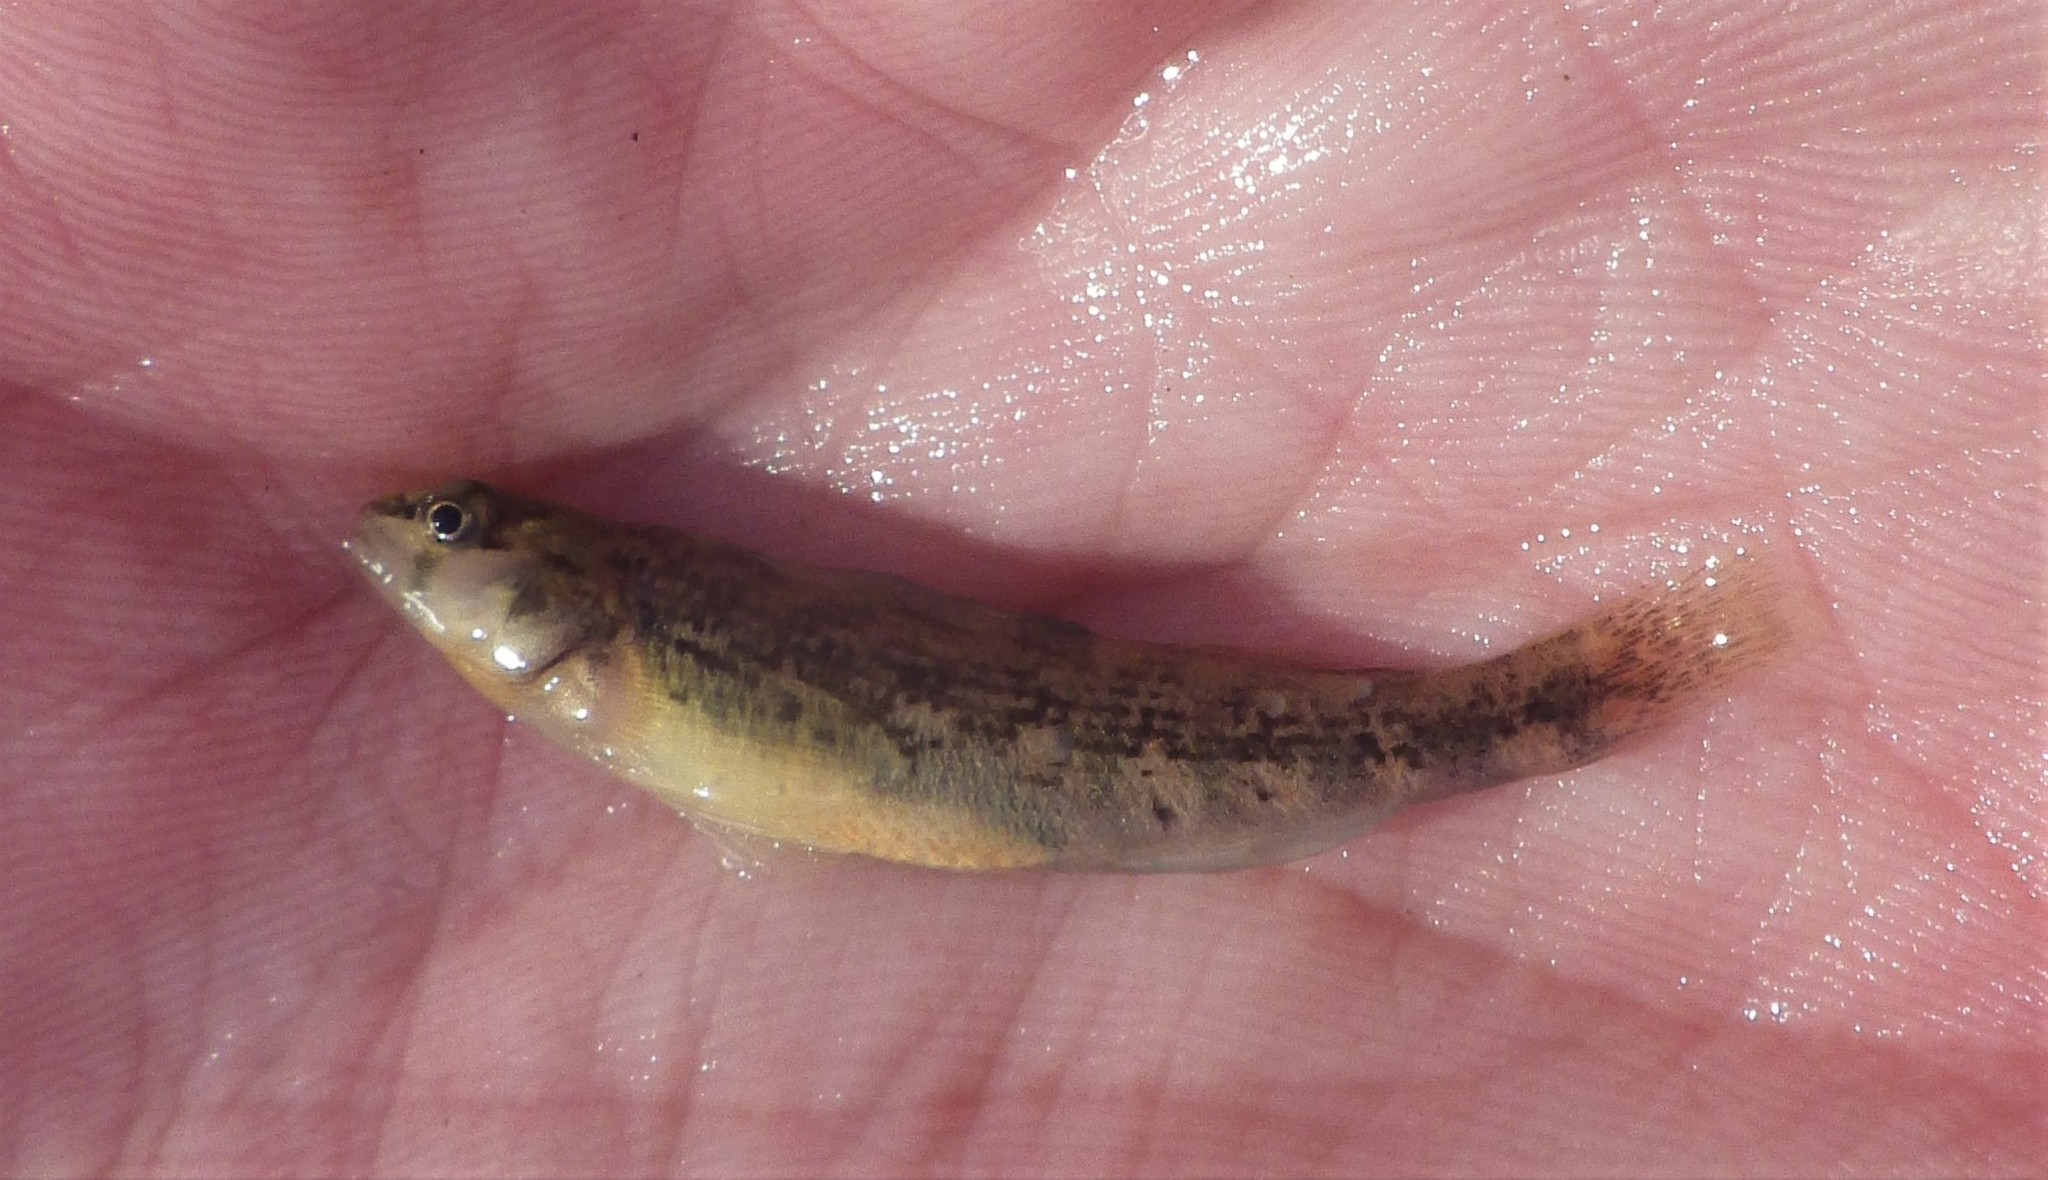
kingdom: Animalia
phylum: Chordata
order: Perciformes
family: Percidae
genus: Etheostoma
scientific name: Etheostoma spectabile
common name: Orangethroat darter
